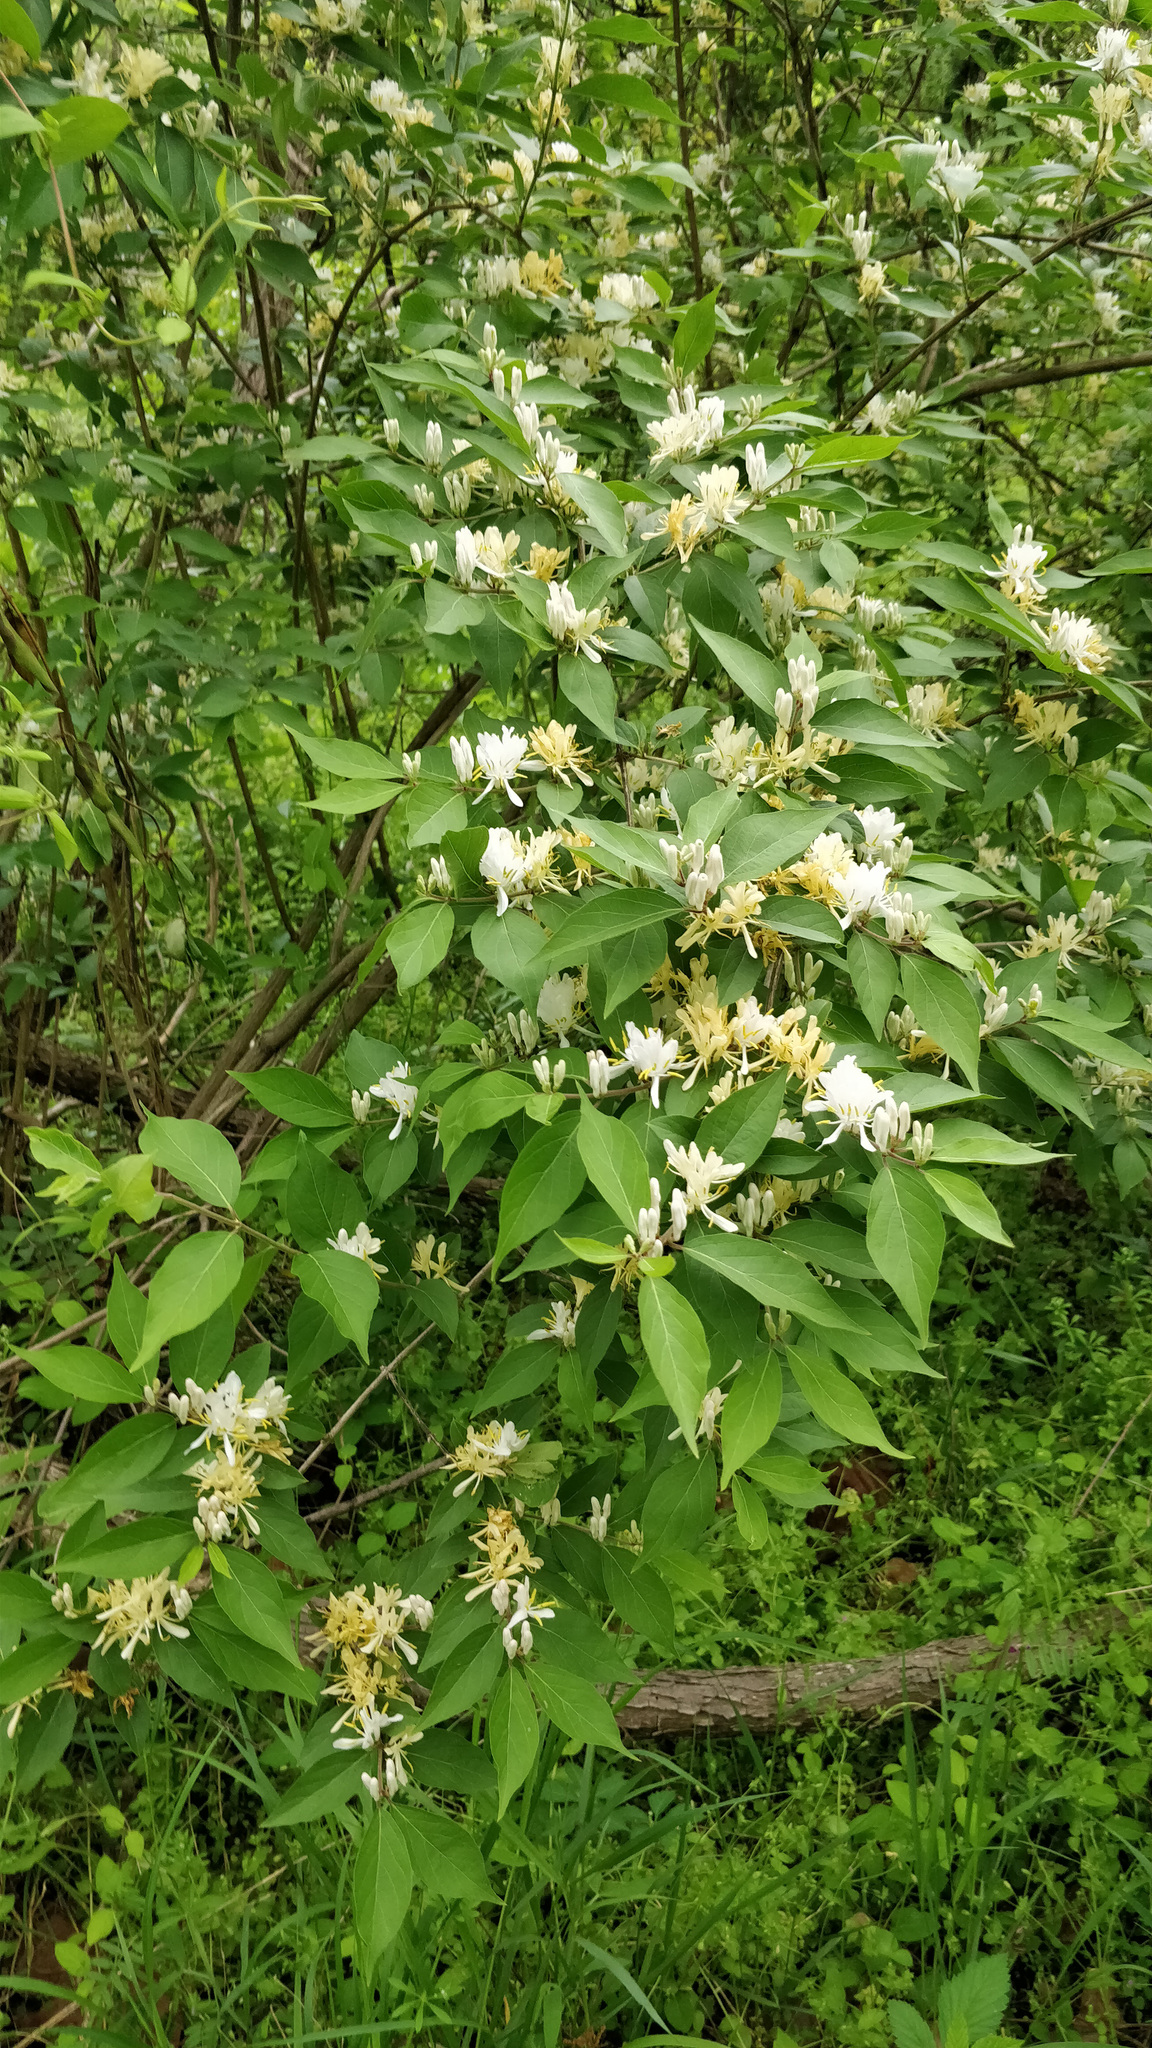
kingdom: Plantae
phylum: Tracheophyta
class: Magnoliopsida
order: Dipsacales
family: Caprifoliaceae
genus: Lonicera
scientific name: Lonicera maackii
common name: Amur honeysuckle
